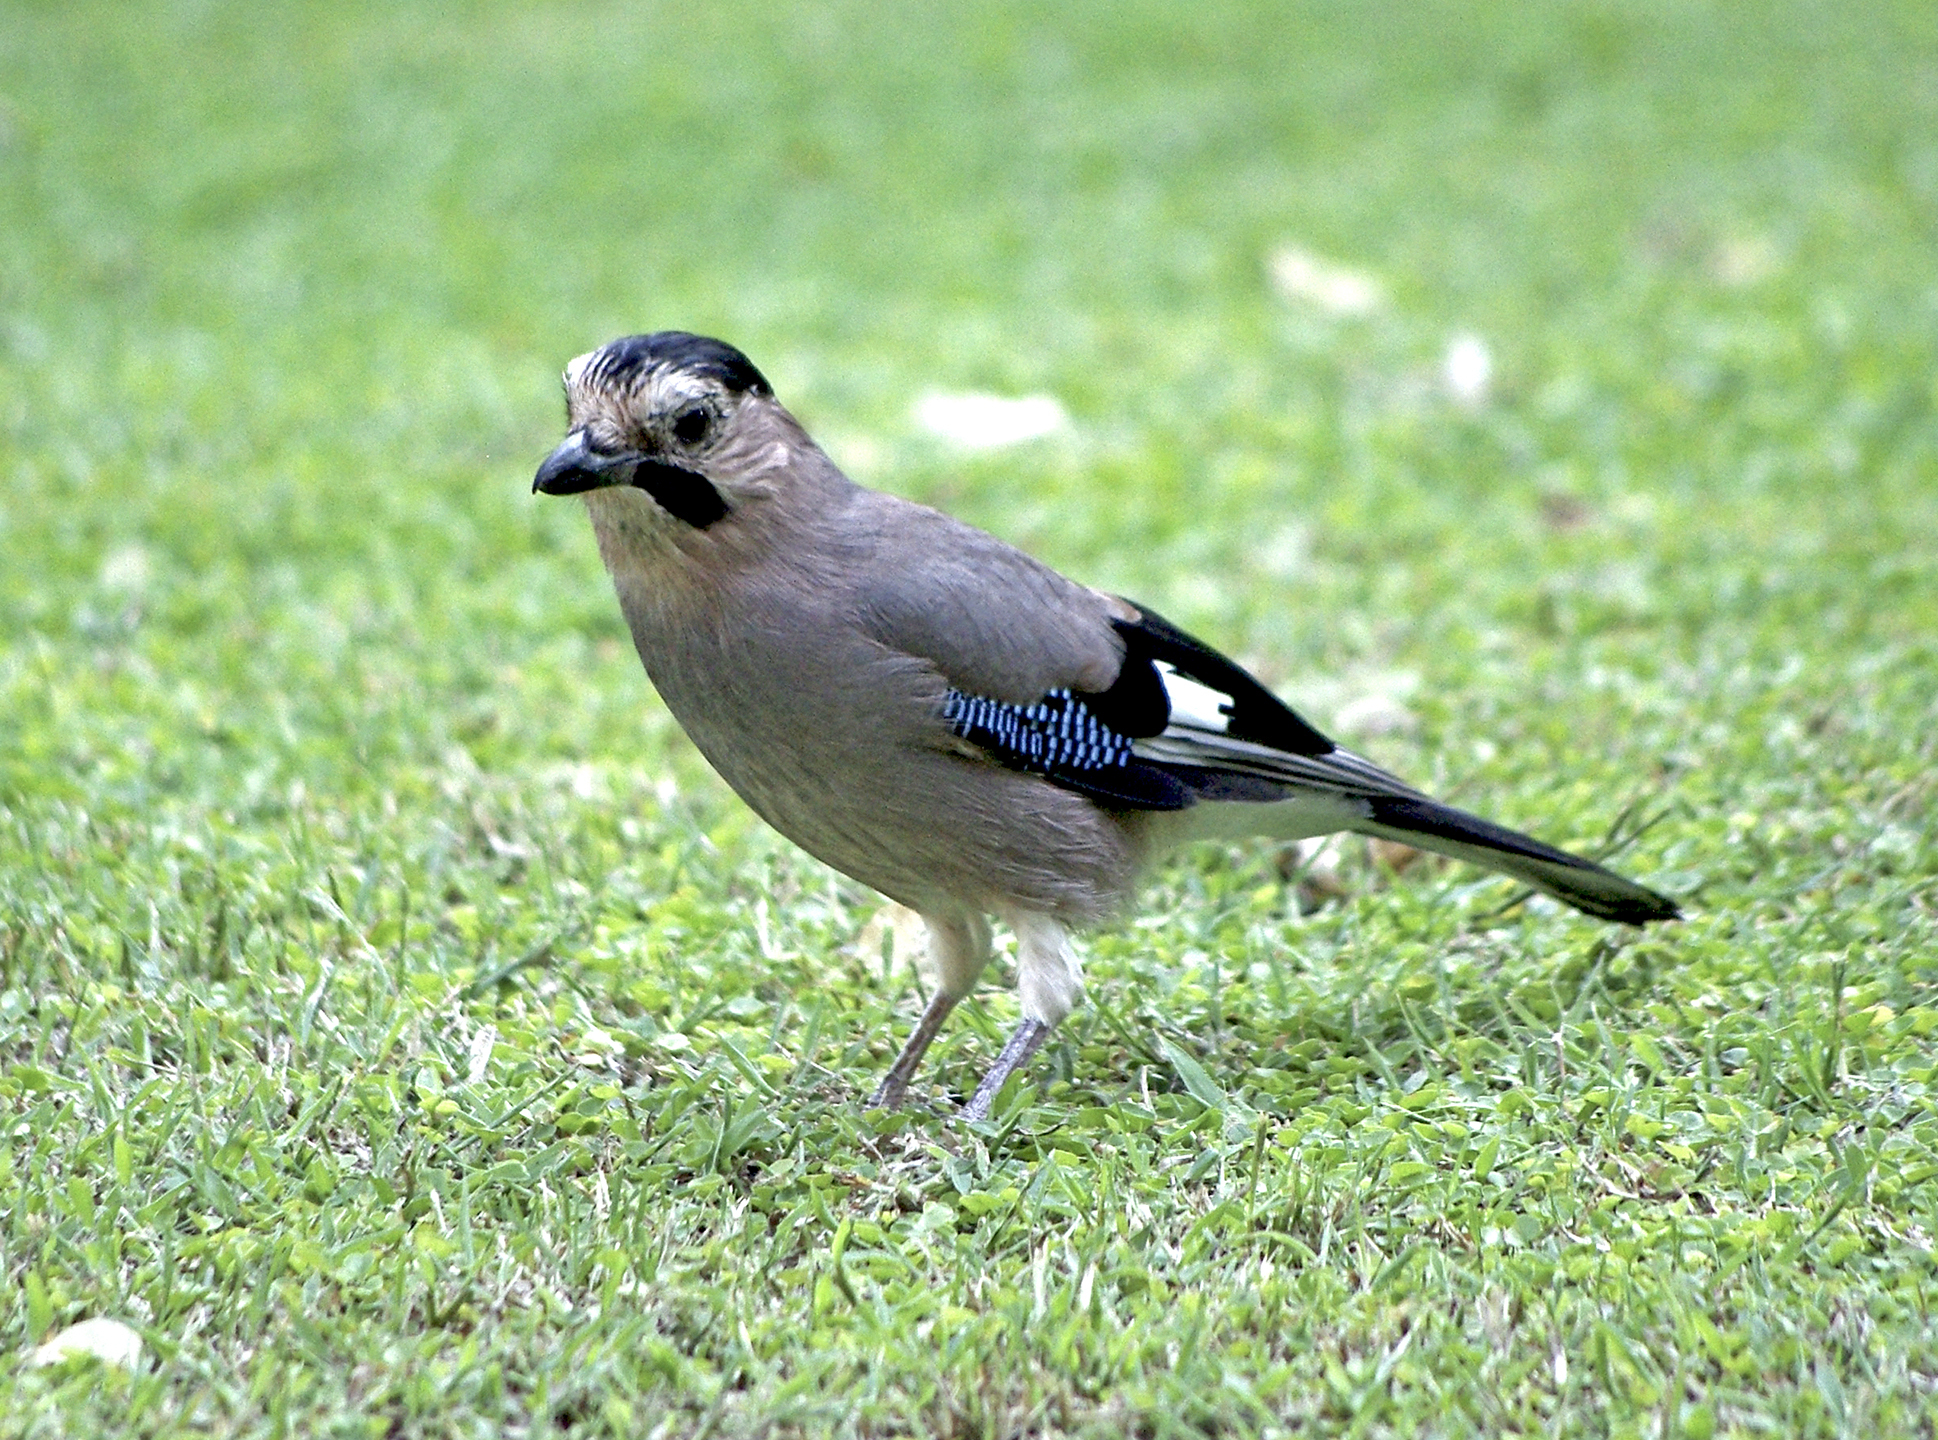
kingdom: Animalia
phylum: Chordata
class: Aves
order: Passeriformes
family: Corvidae
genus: Garrulus
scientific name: Garrulus glandarius
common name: Eurasian jay
